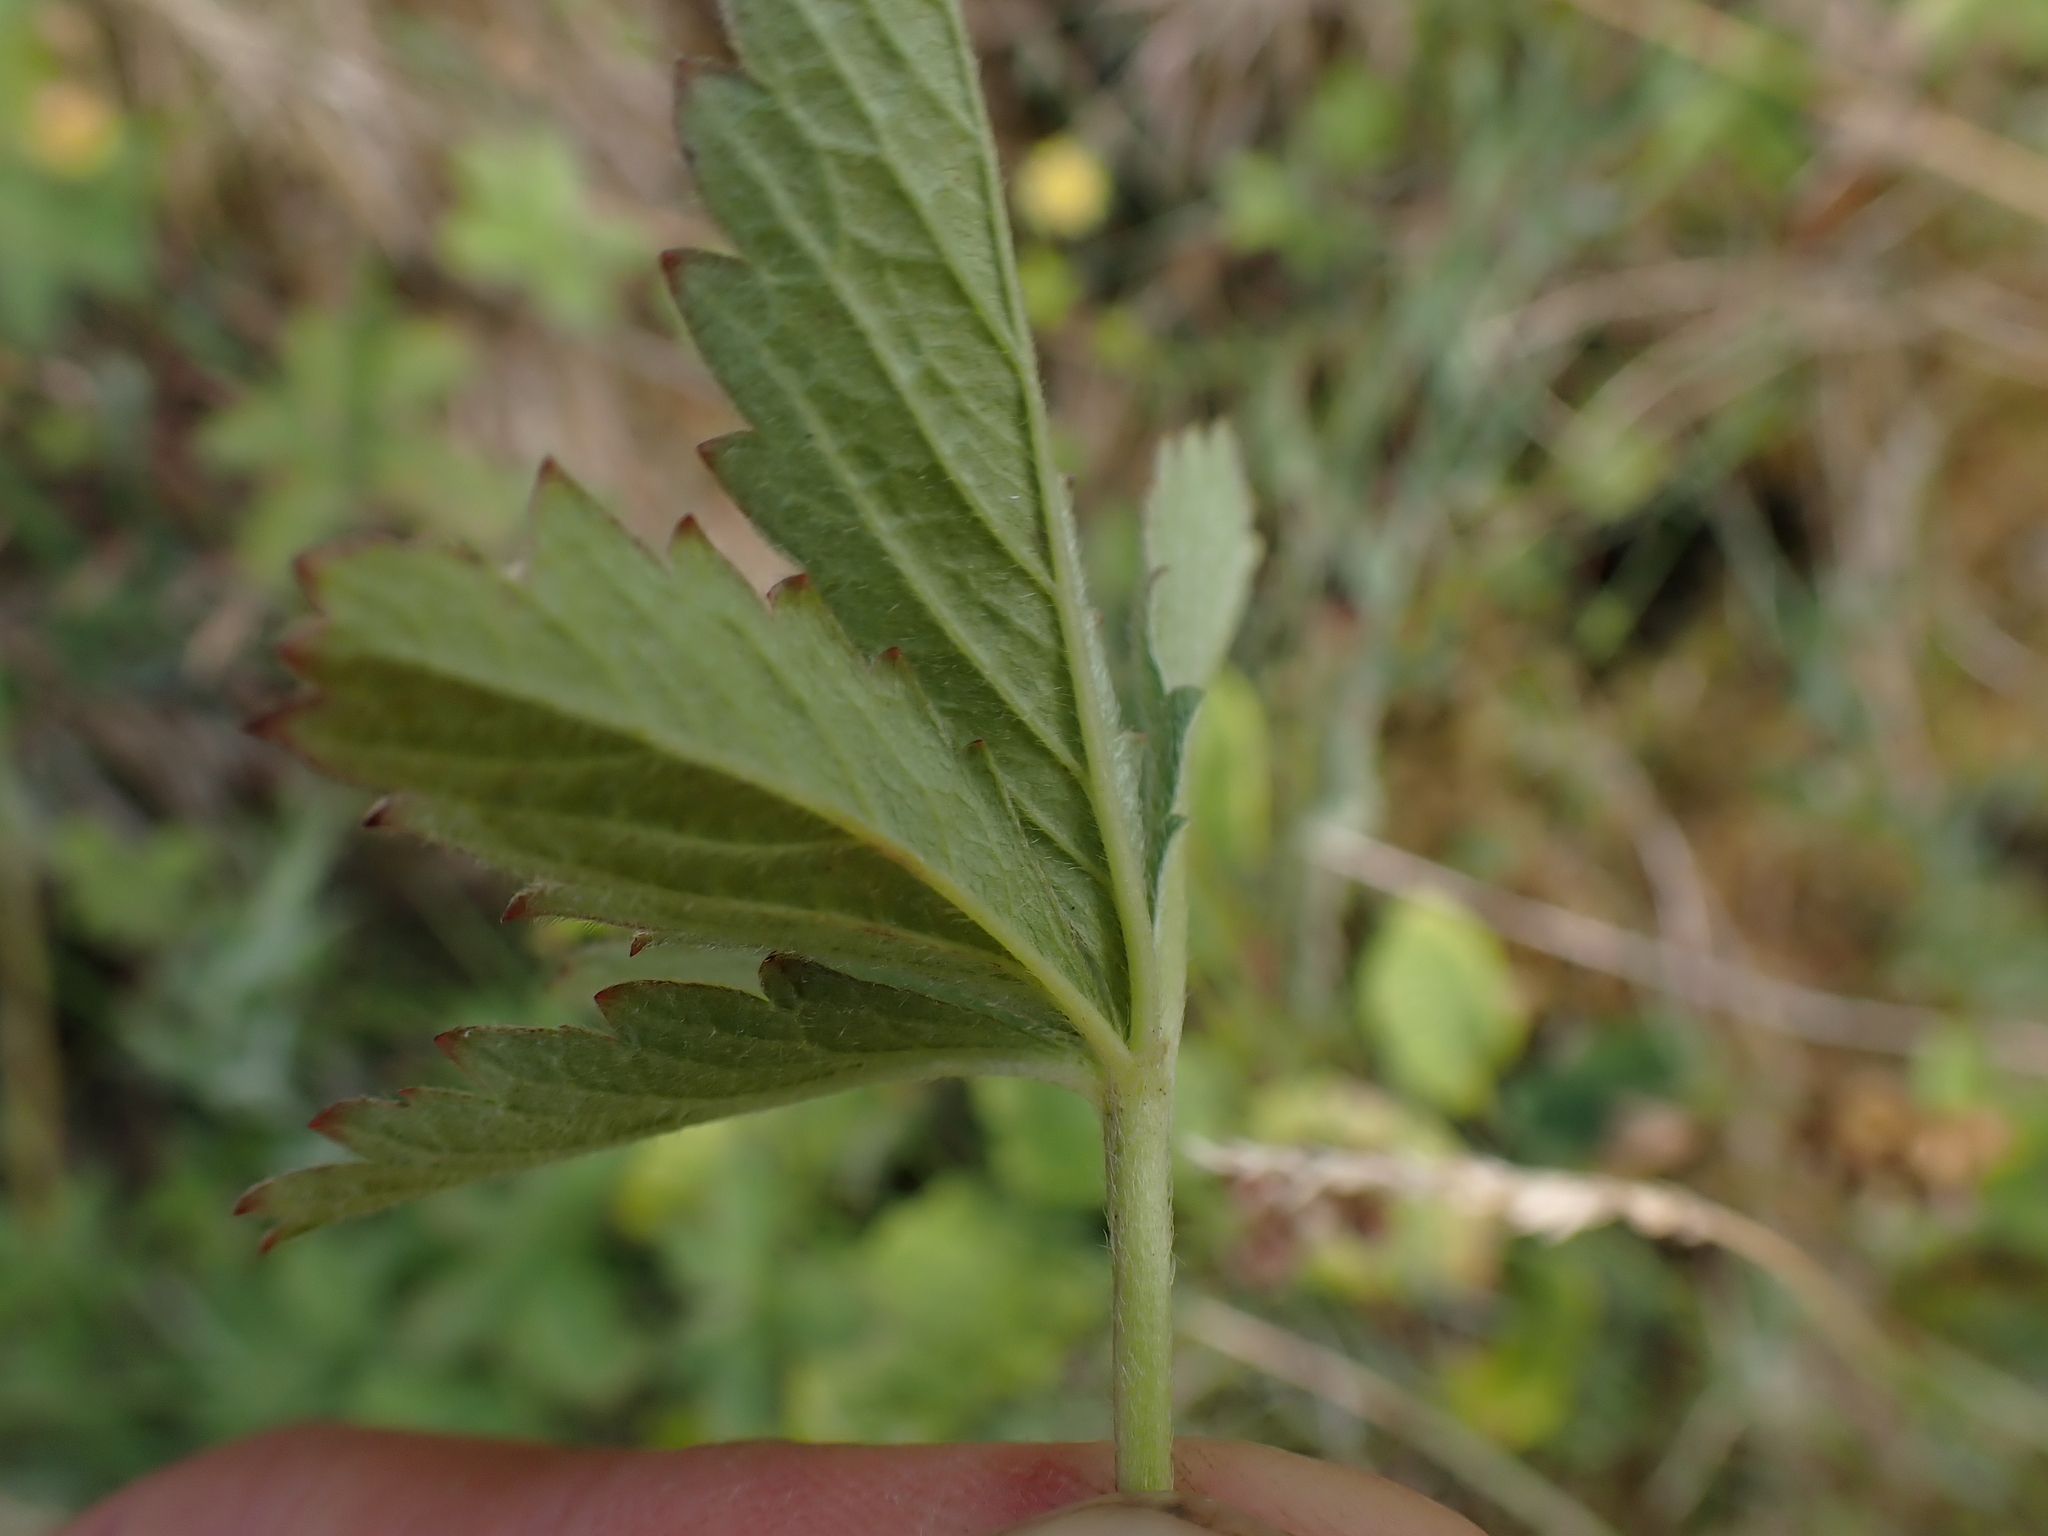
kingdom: Plantae
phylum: Tracheophyta
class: Magnoliopsida
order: Rosales
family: Rosaceae
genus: Potentilla
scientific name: Potentilla reptans
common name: Creeping cinquefoil
